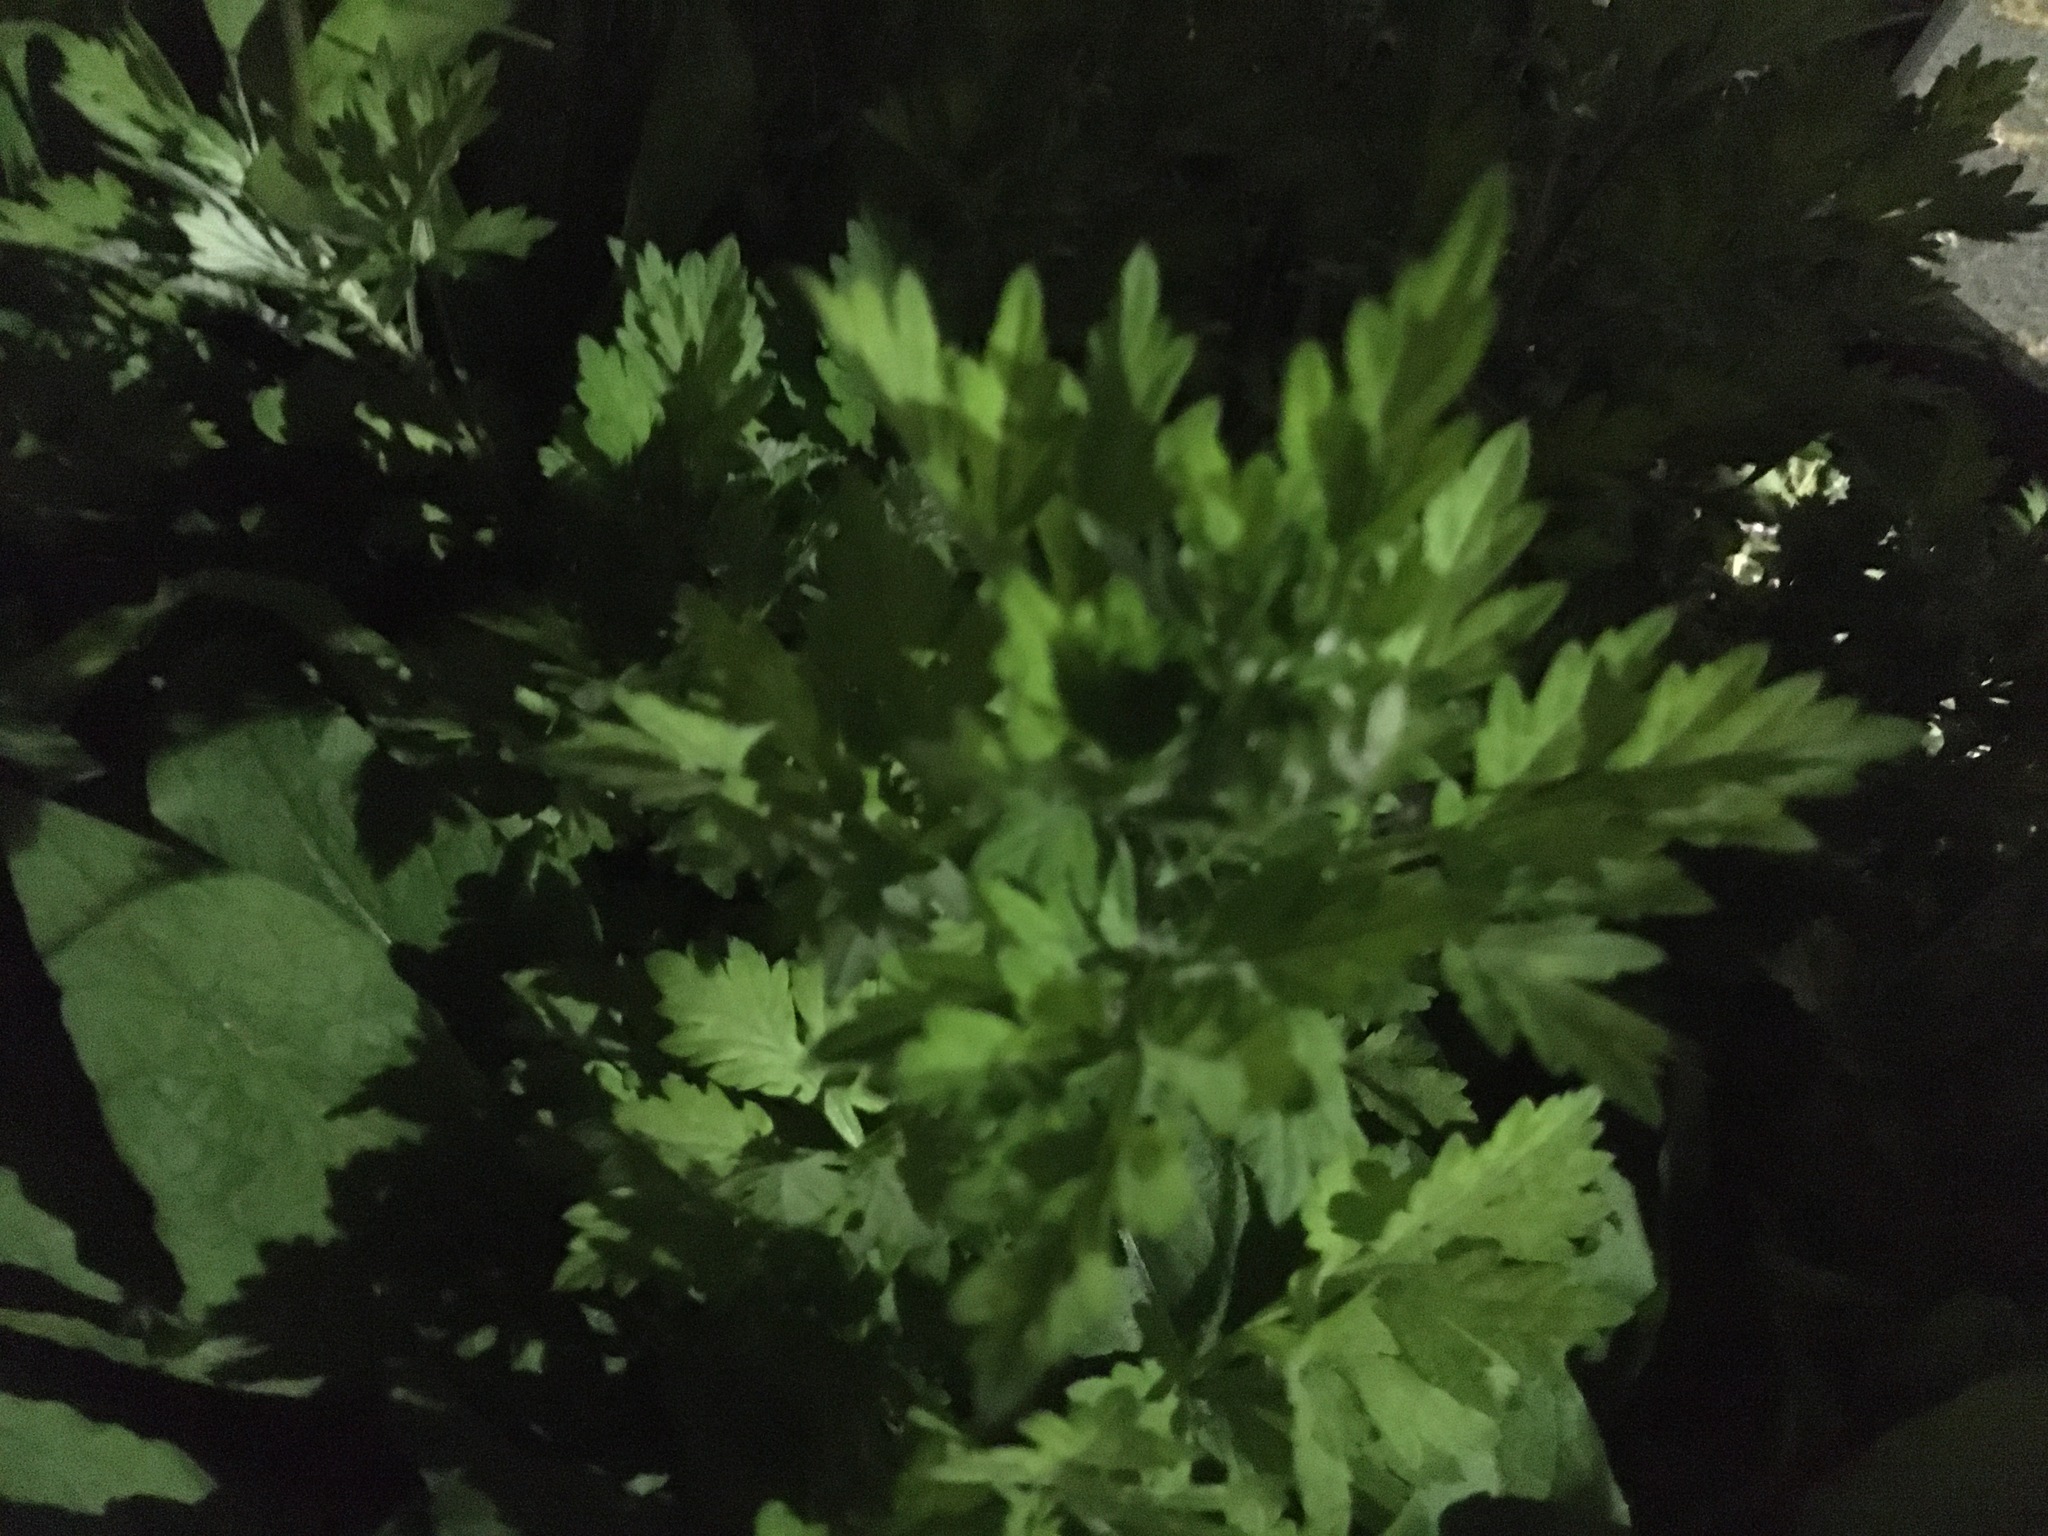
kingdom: Plantae
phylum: Tracheophyta
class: Magnoliopsida
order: Asterales
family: Asteraceae
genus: Artemisia
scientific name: Artemisia vulgaris
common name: Mugwort
